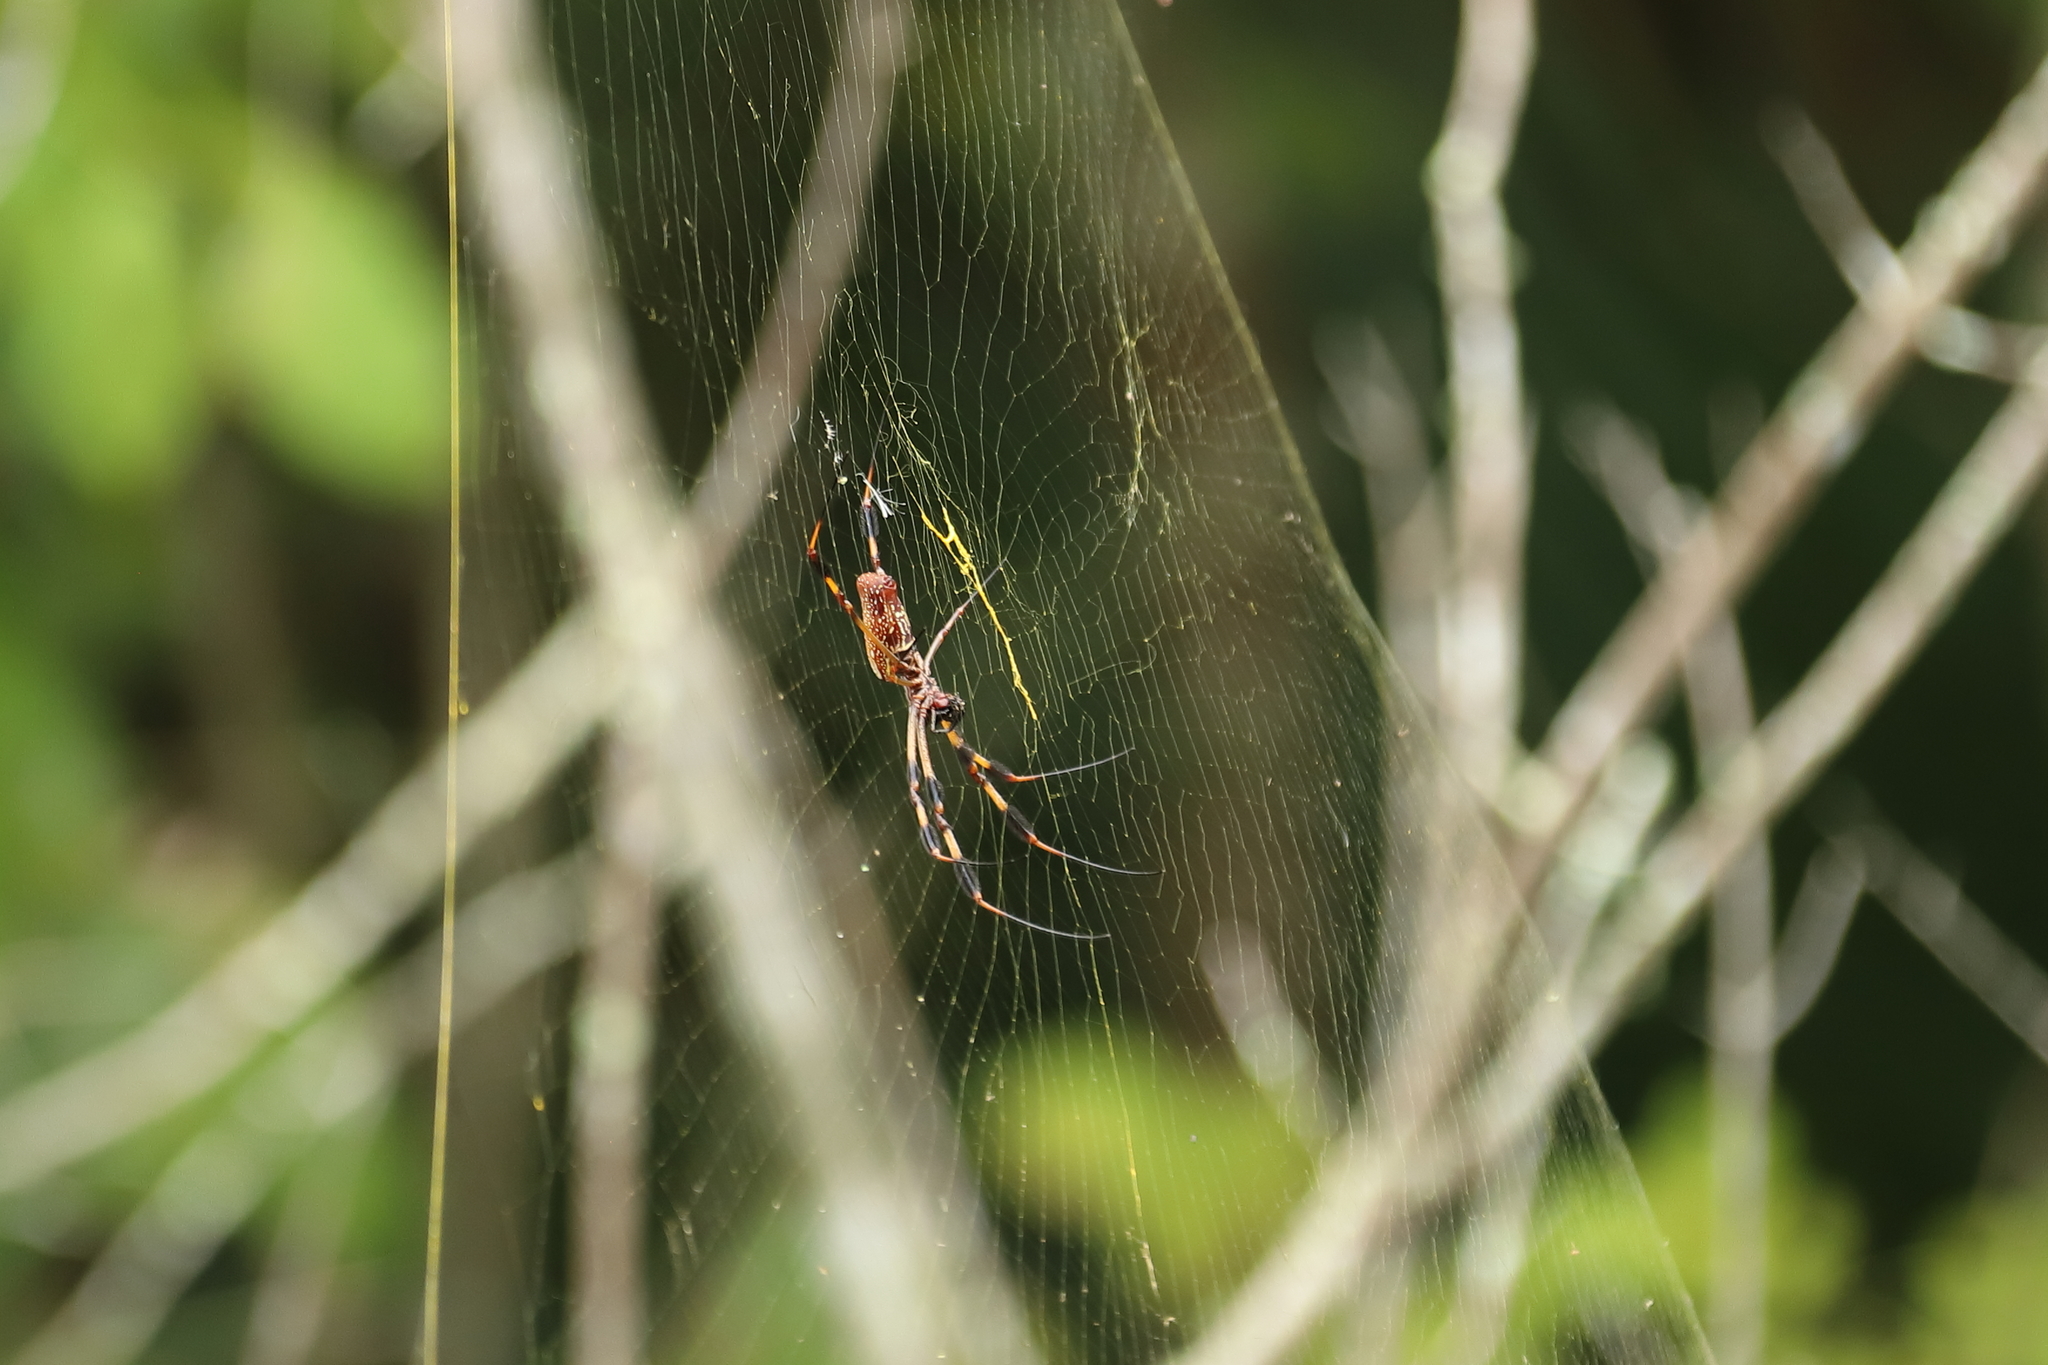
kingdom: Animalia
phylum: Arthropoda
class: Arachnida
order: Araneae
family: Araneidae
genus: Trichonephila
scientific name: Trichonephila clavipes
